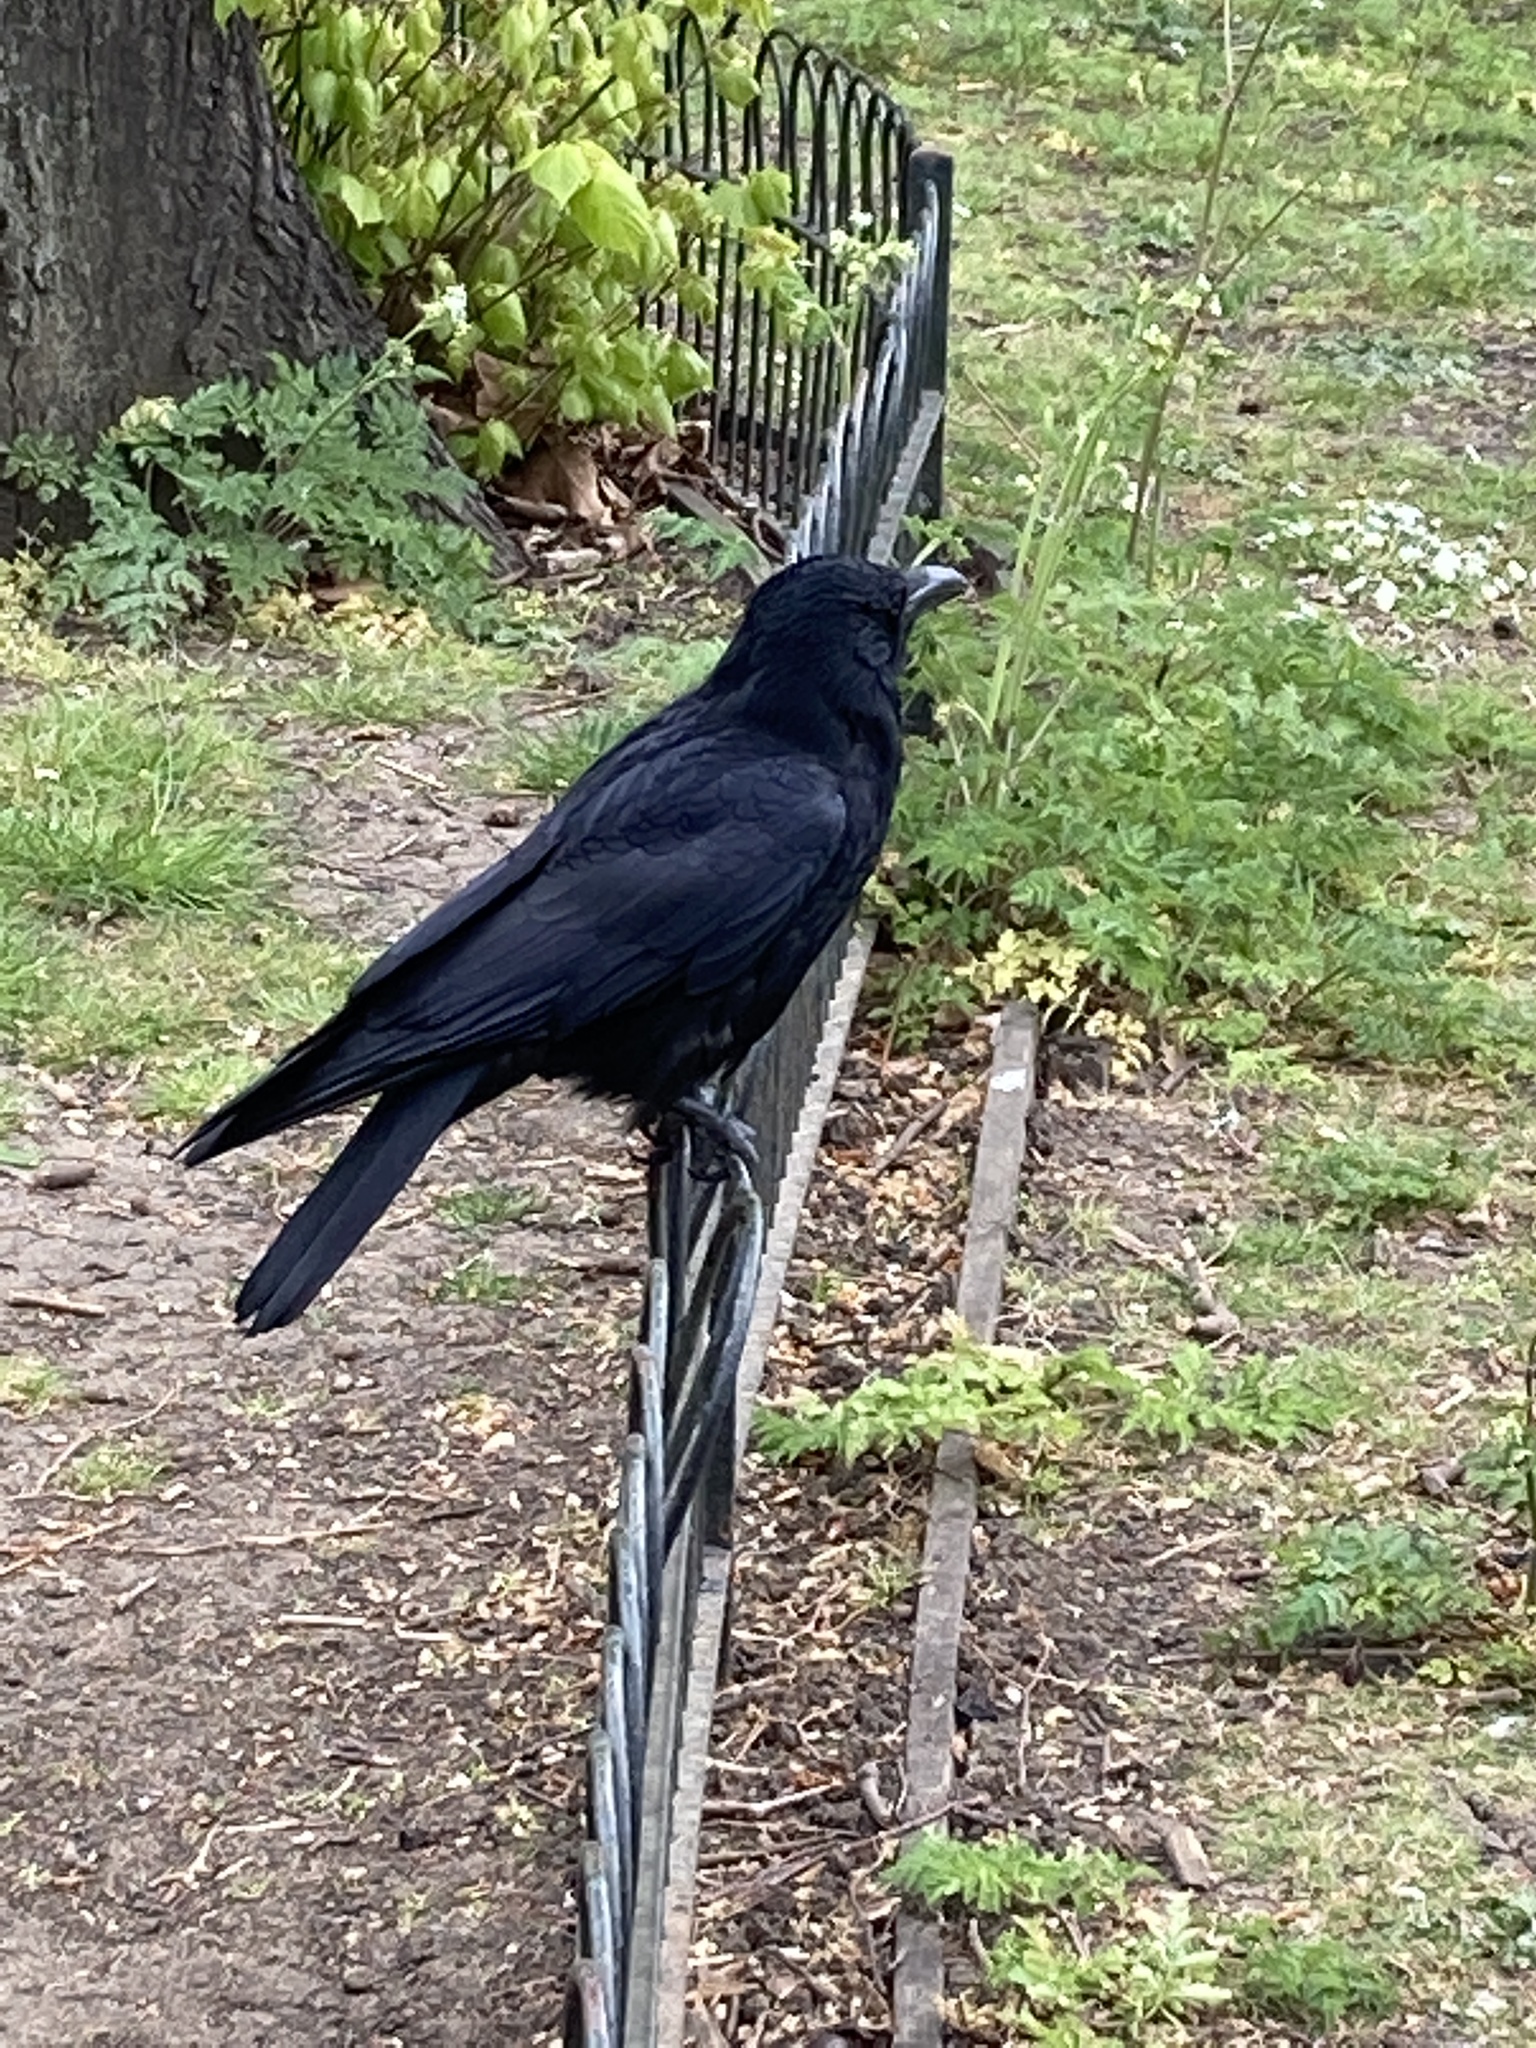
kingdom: Animalia
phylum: Chordata
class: Aves
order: Passeriformes
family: Corvidae
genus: Corvus
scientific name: Corvus corone
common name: Carrion crow
